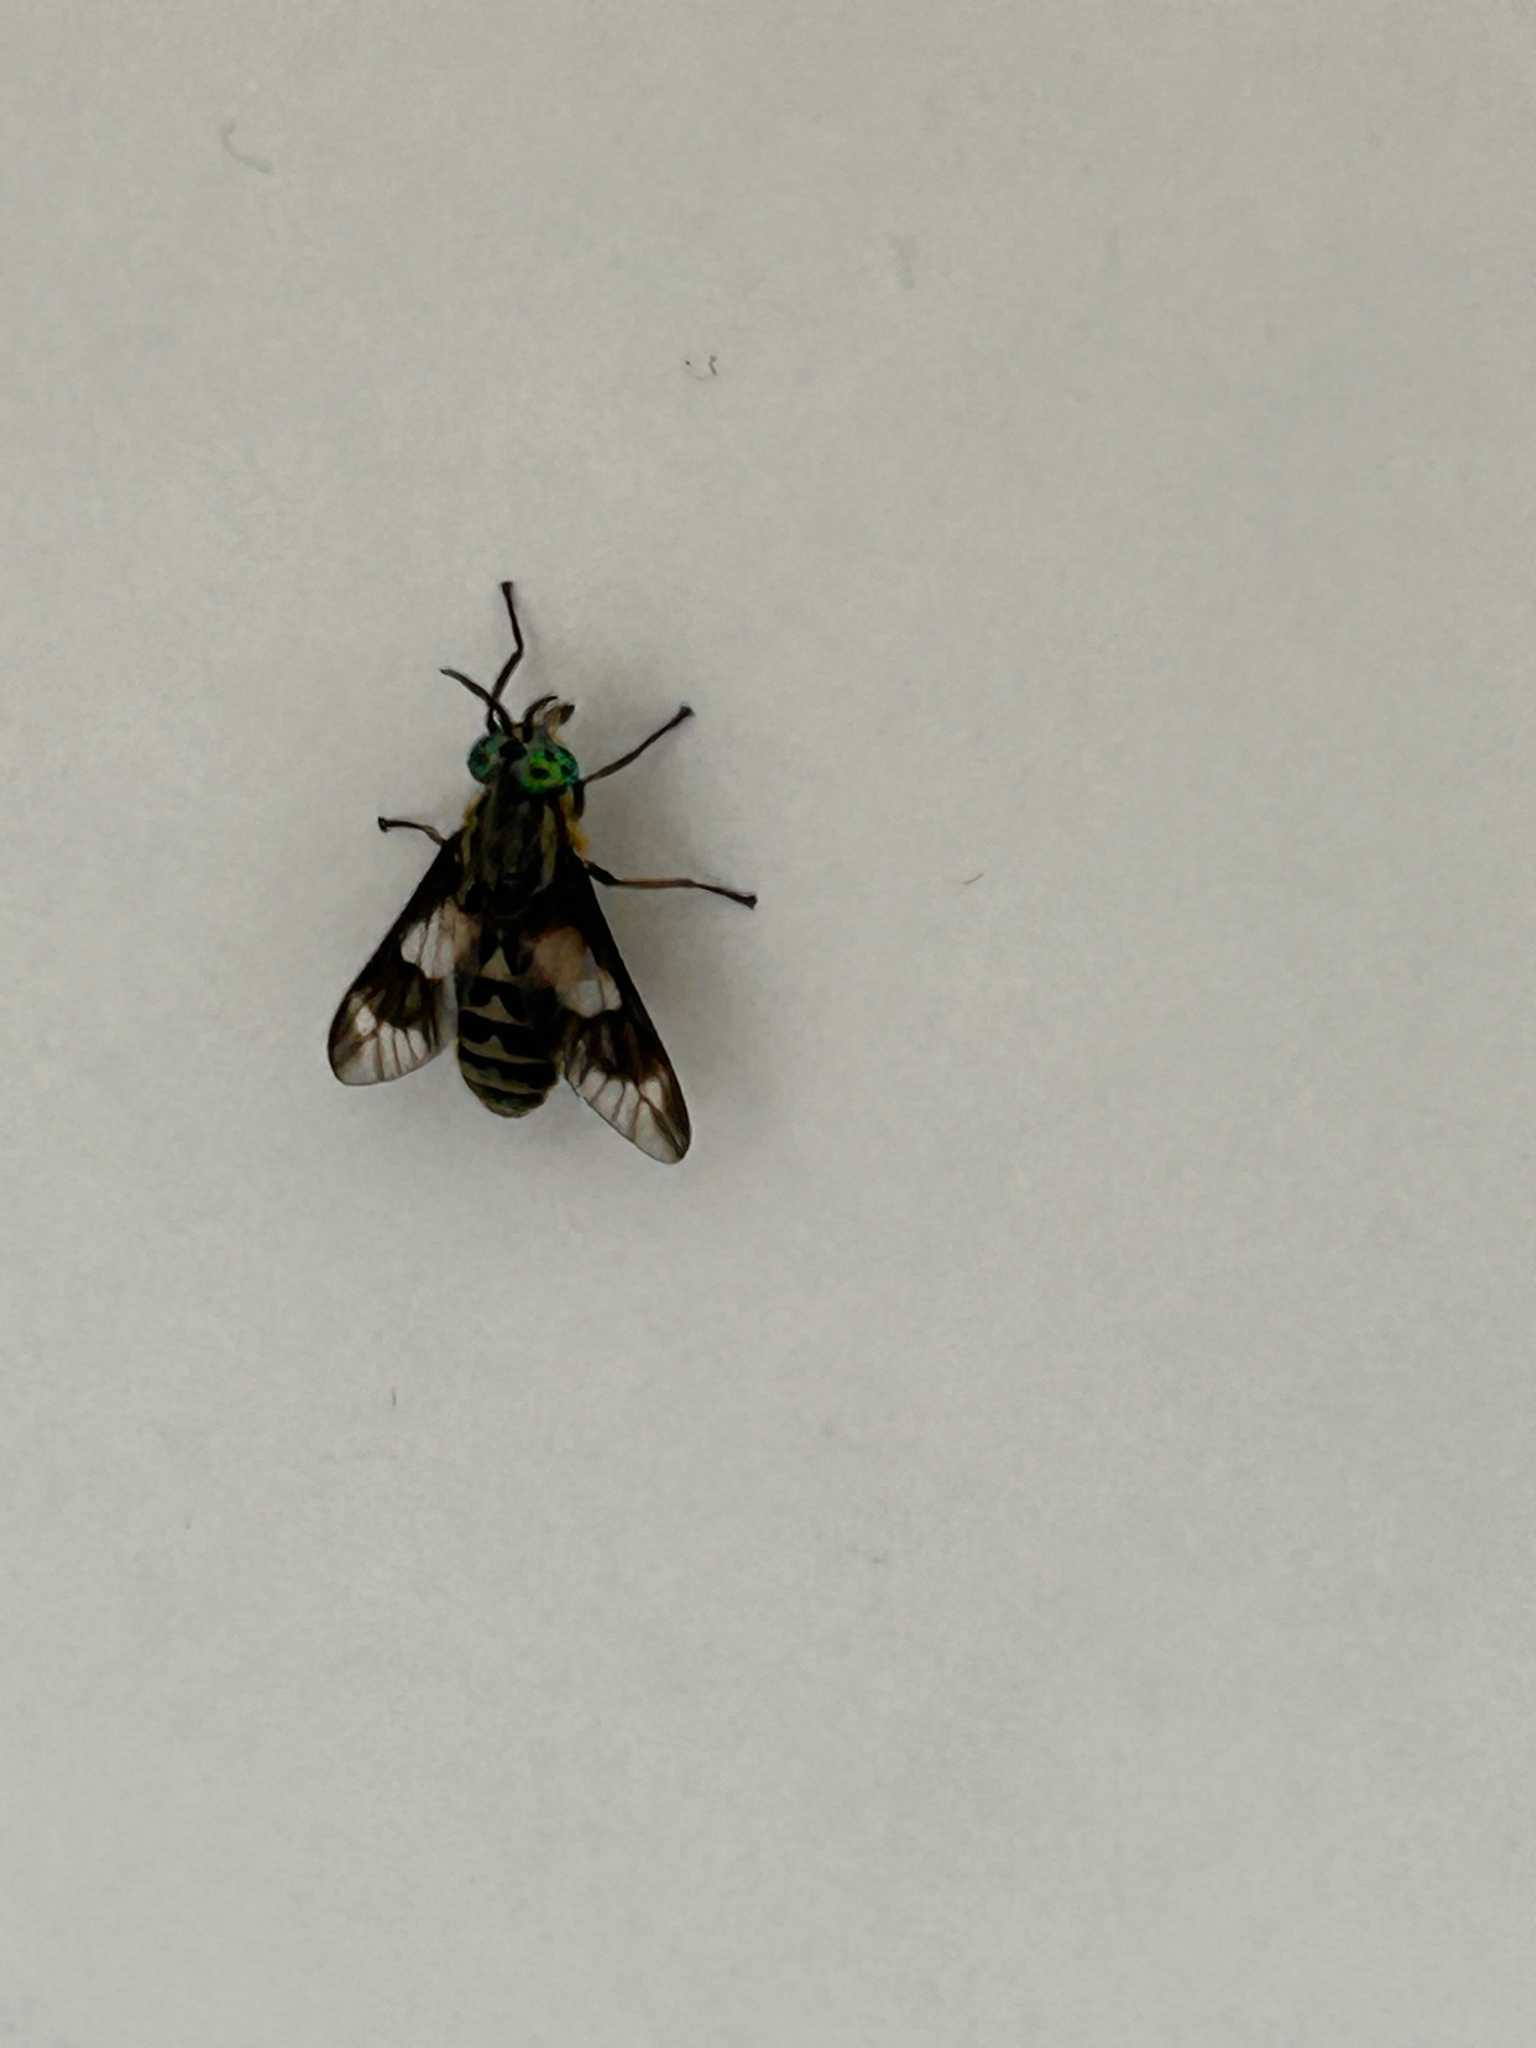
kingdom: Animalia
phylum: Arthropoda
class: Insecta
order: Diptera
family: Tabanidae
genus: Chrysops
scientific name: Chrysops relictus
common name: Twin-lobed deerfly
